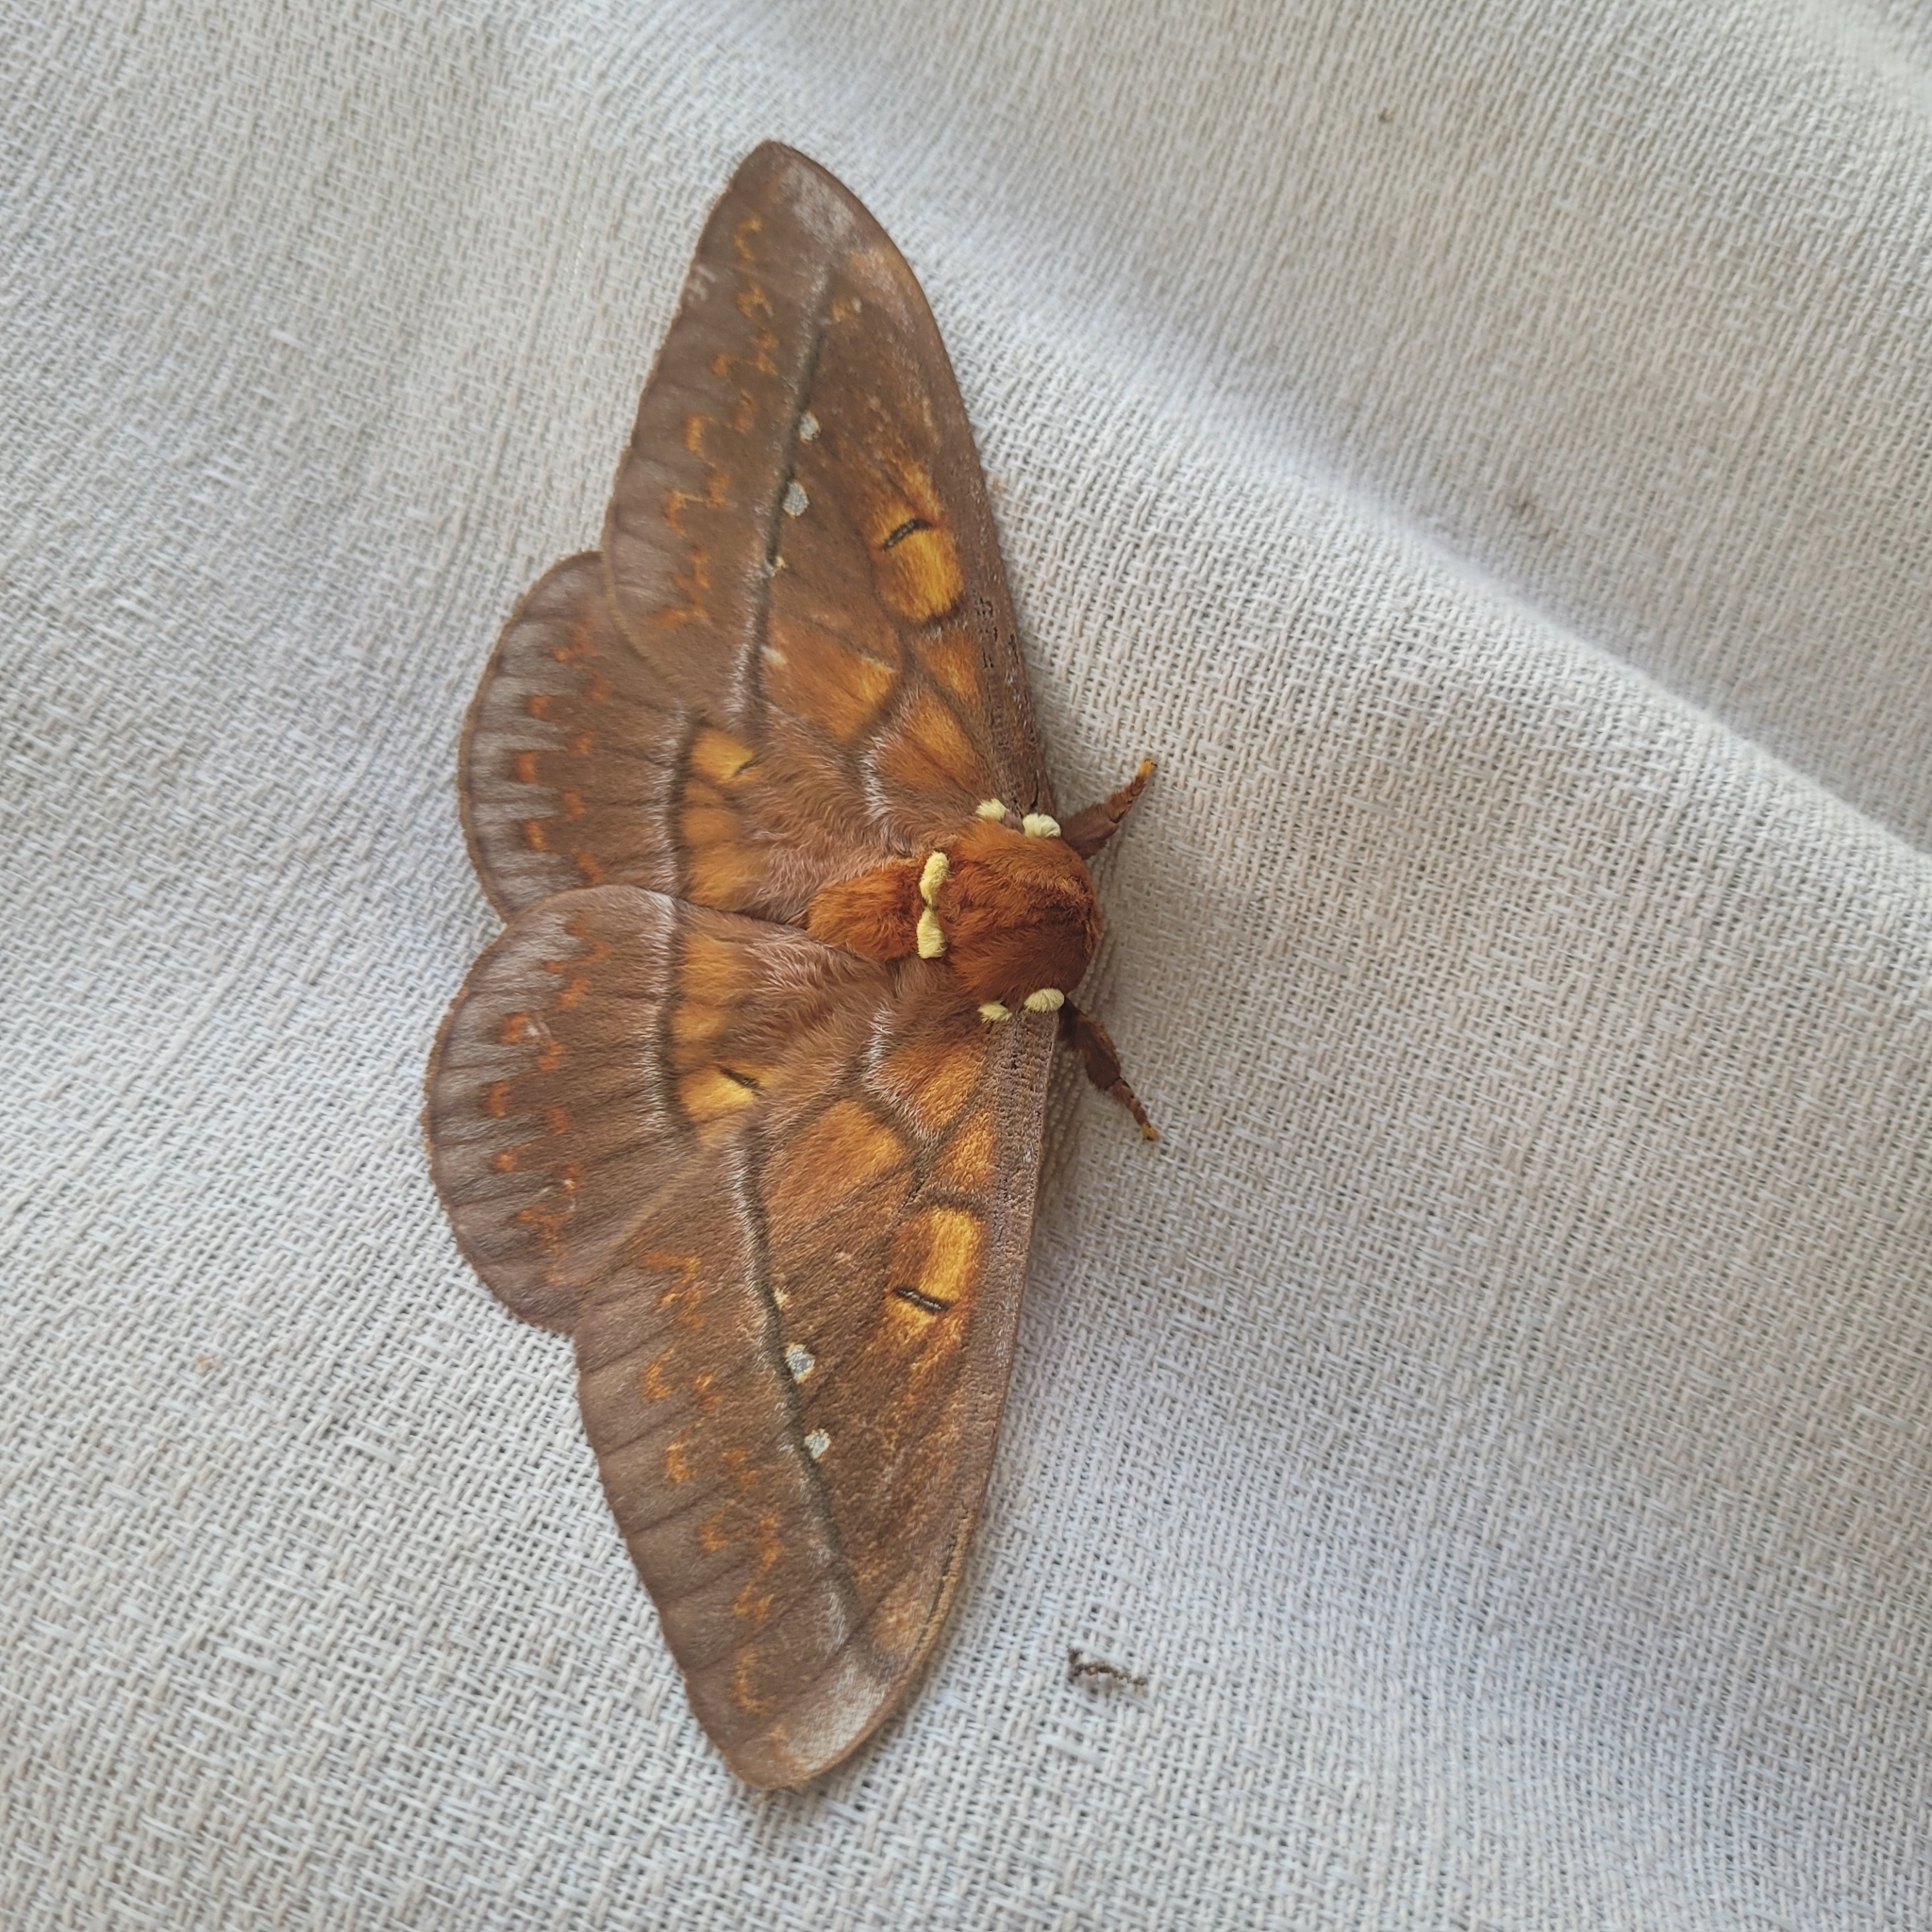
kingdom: Animalia
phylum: Arthropoda
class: Insecta
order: Lepidoptera
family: Saturniidae
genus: Procitheronia
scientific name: Procitheronia principalis
